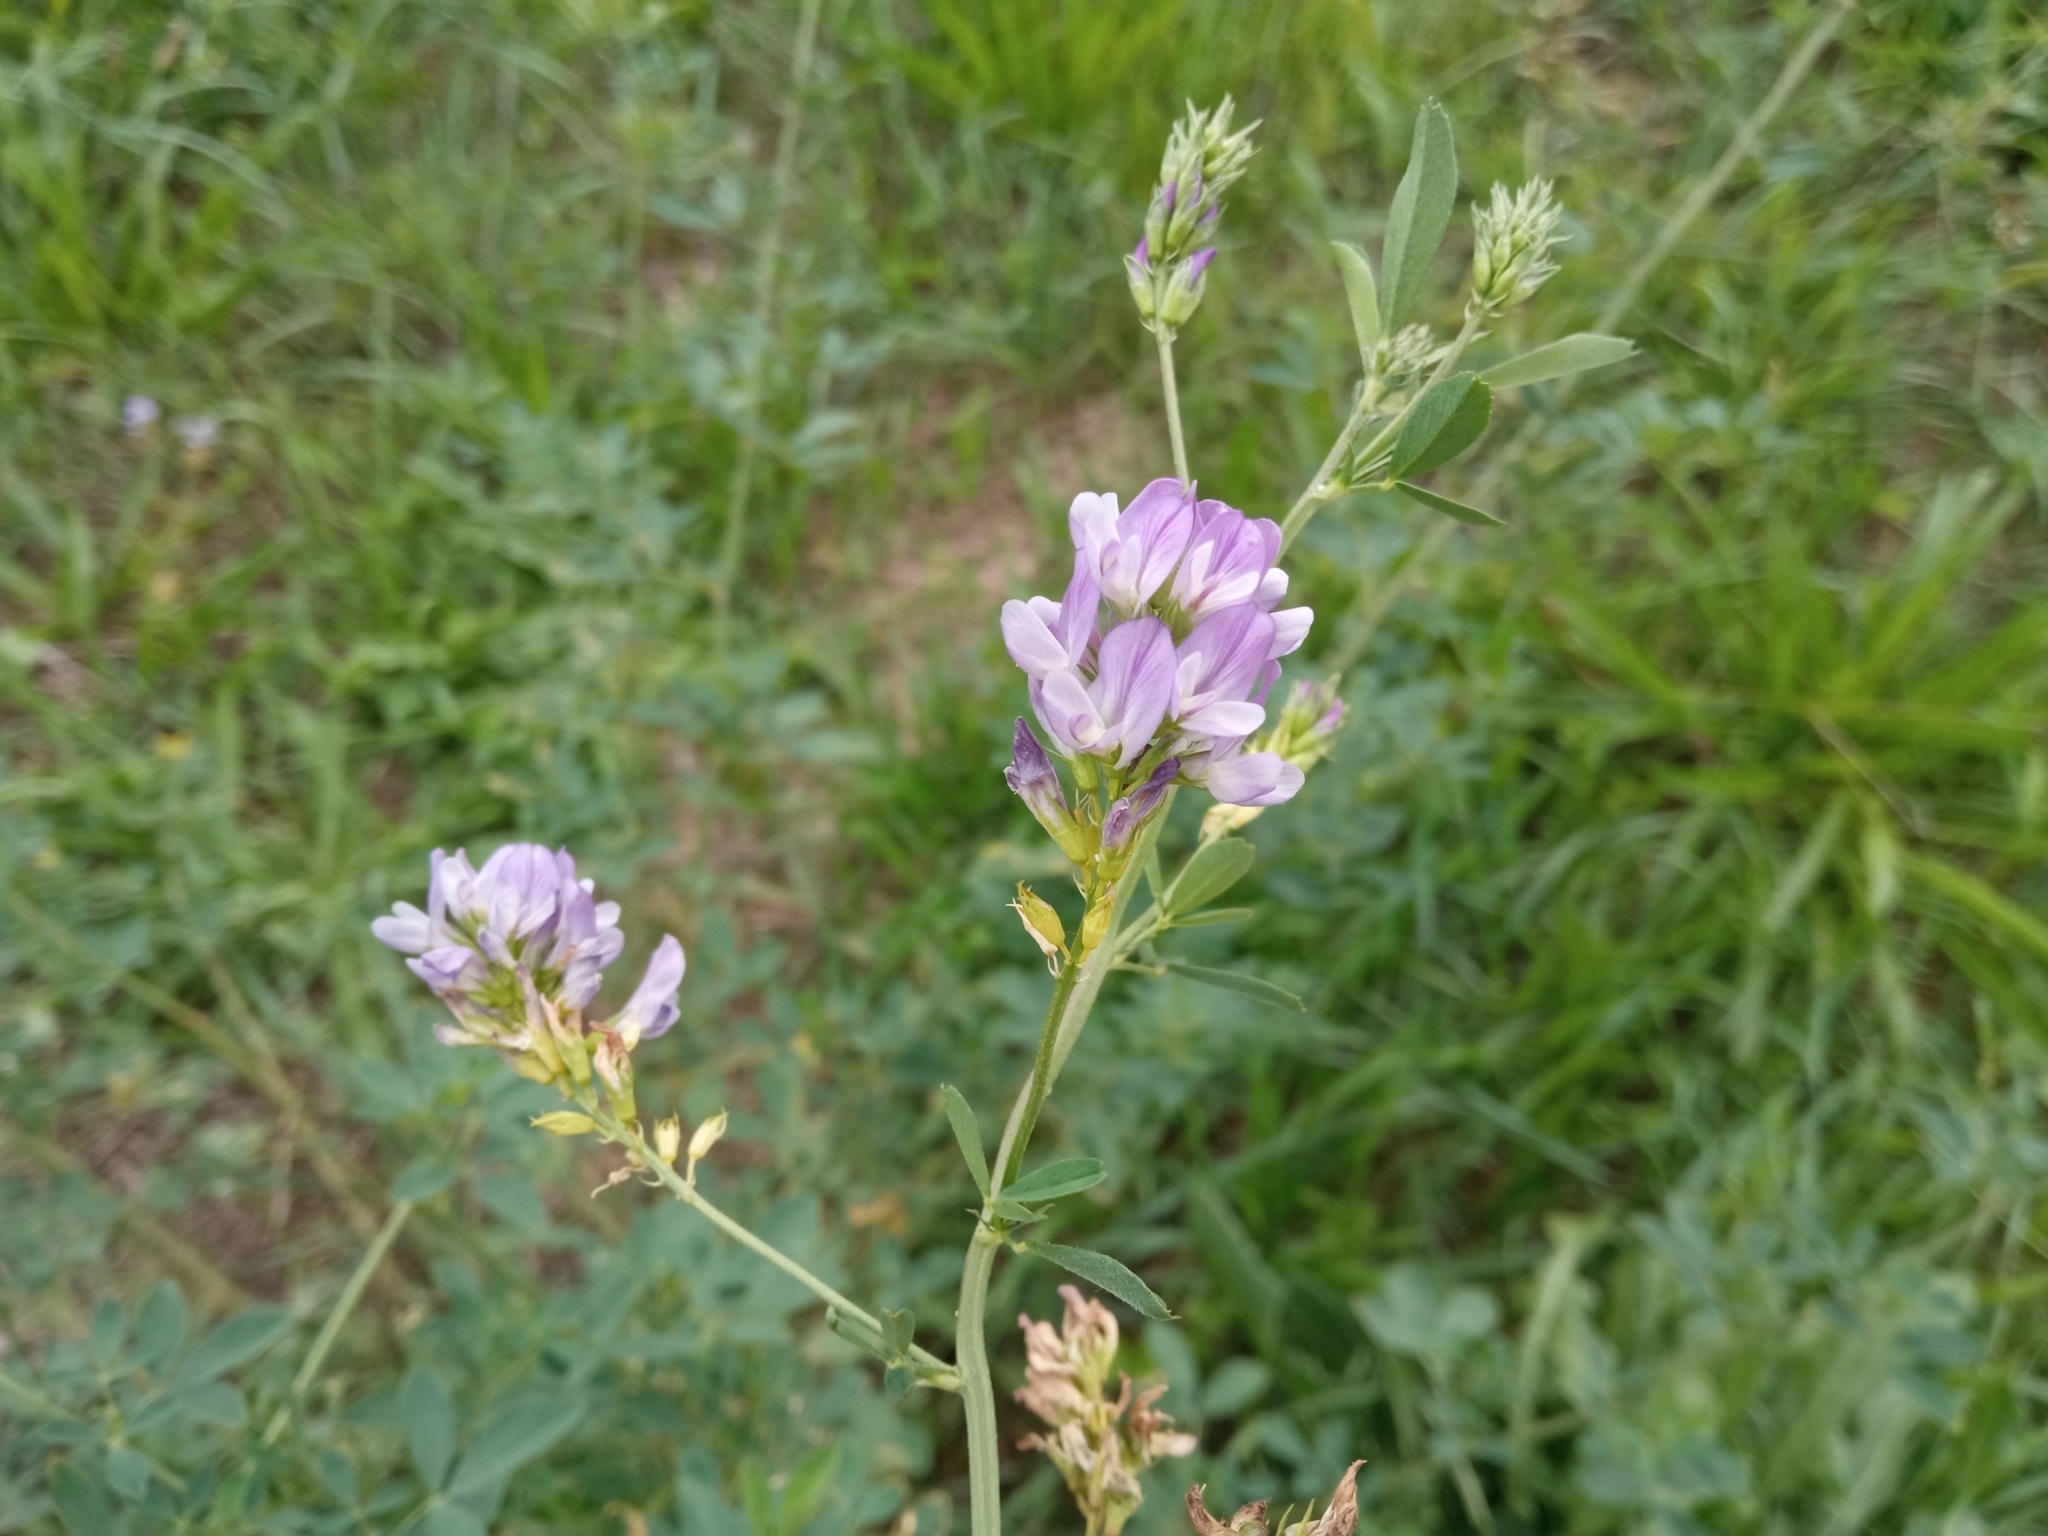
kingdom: Plantae
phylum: Tracheophyta
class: Magnoliopsida
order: Fabales
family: Fabaceae
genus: Medicago
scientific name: Medicago sativa
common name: Alfalfa
